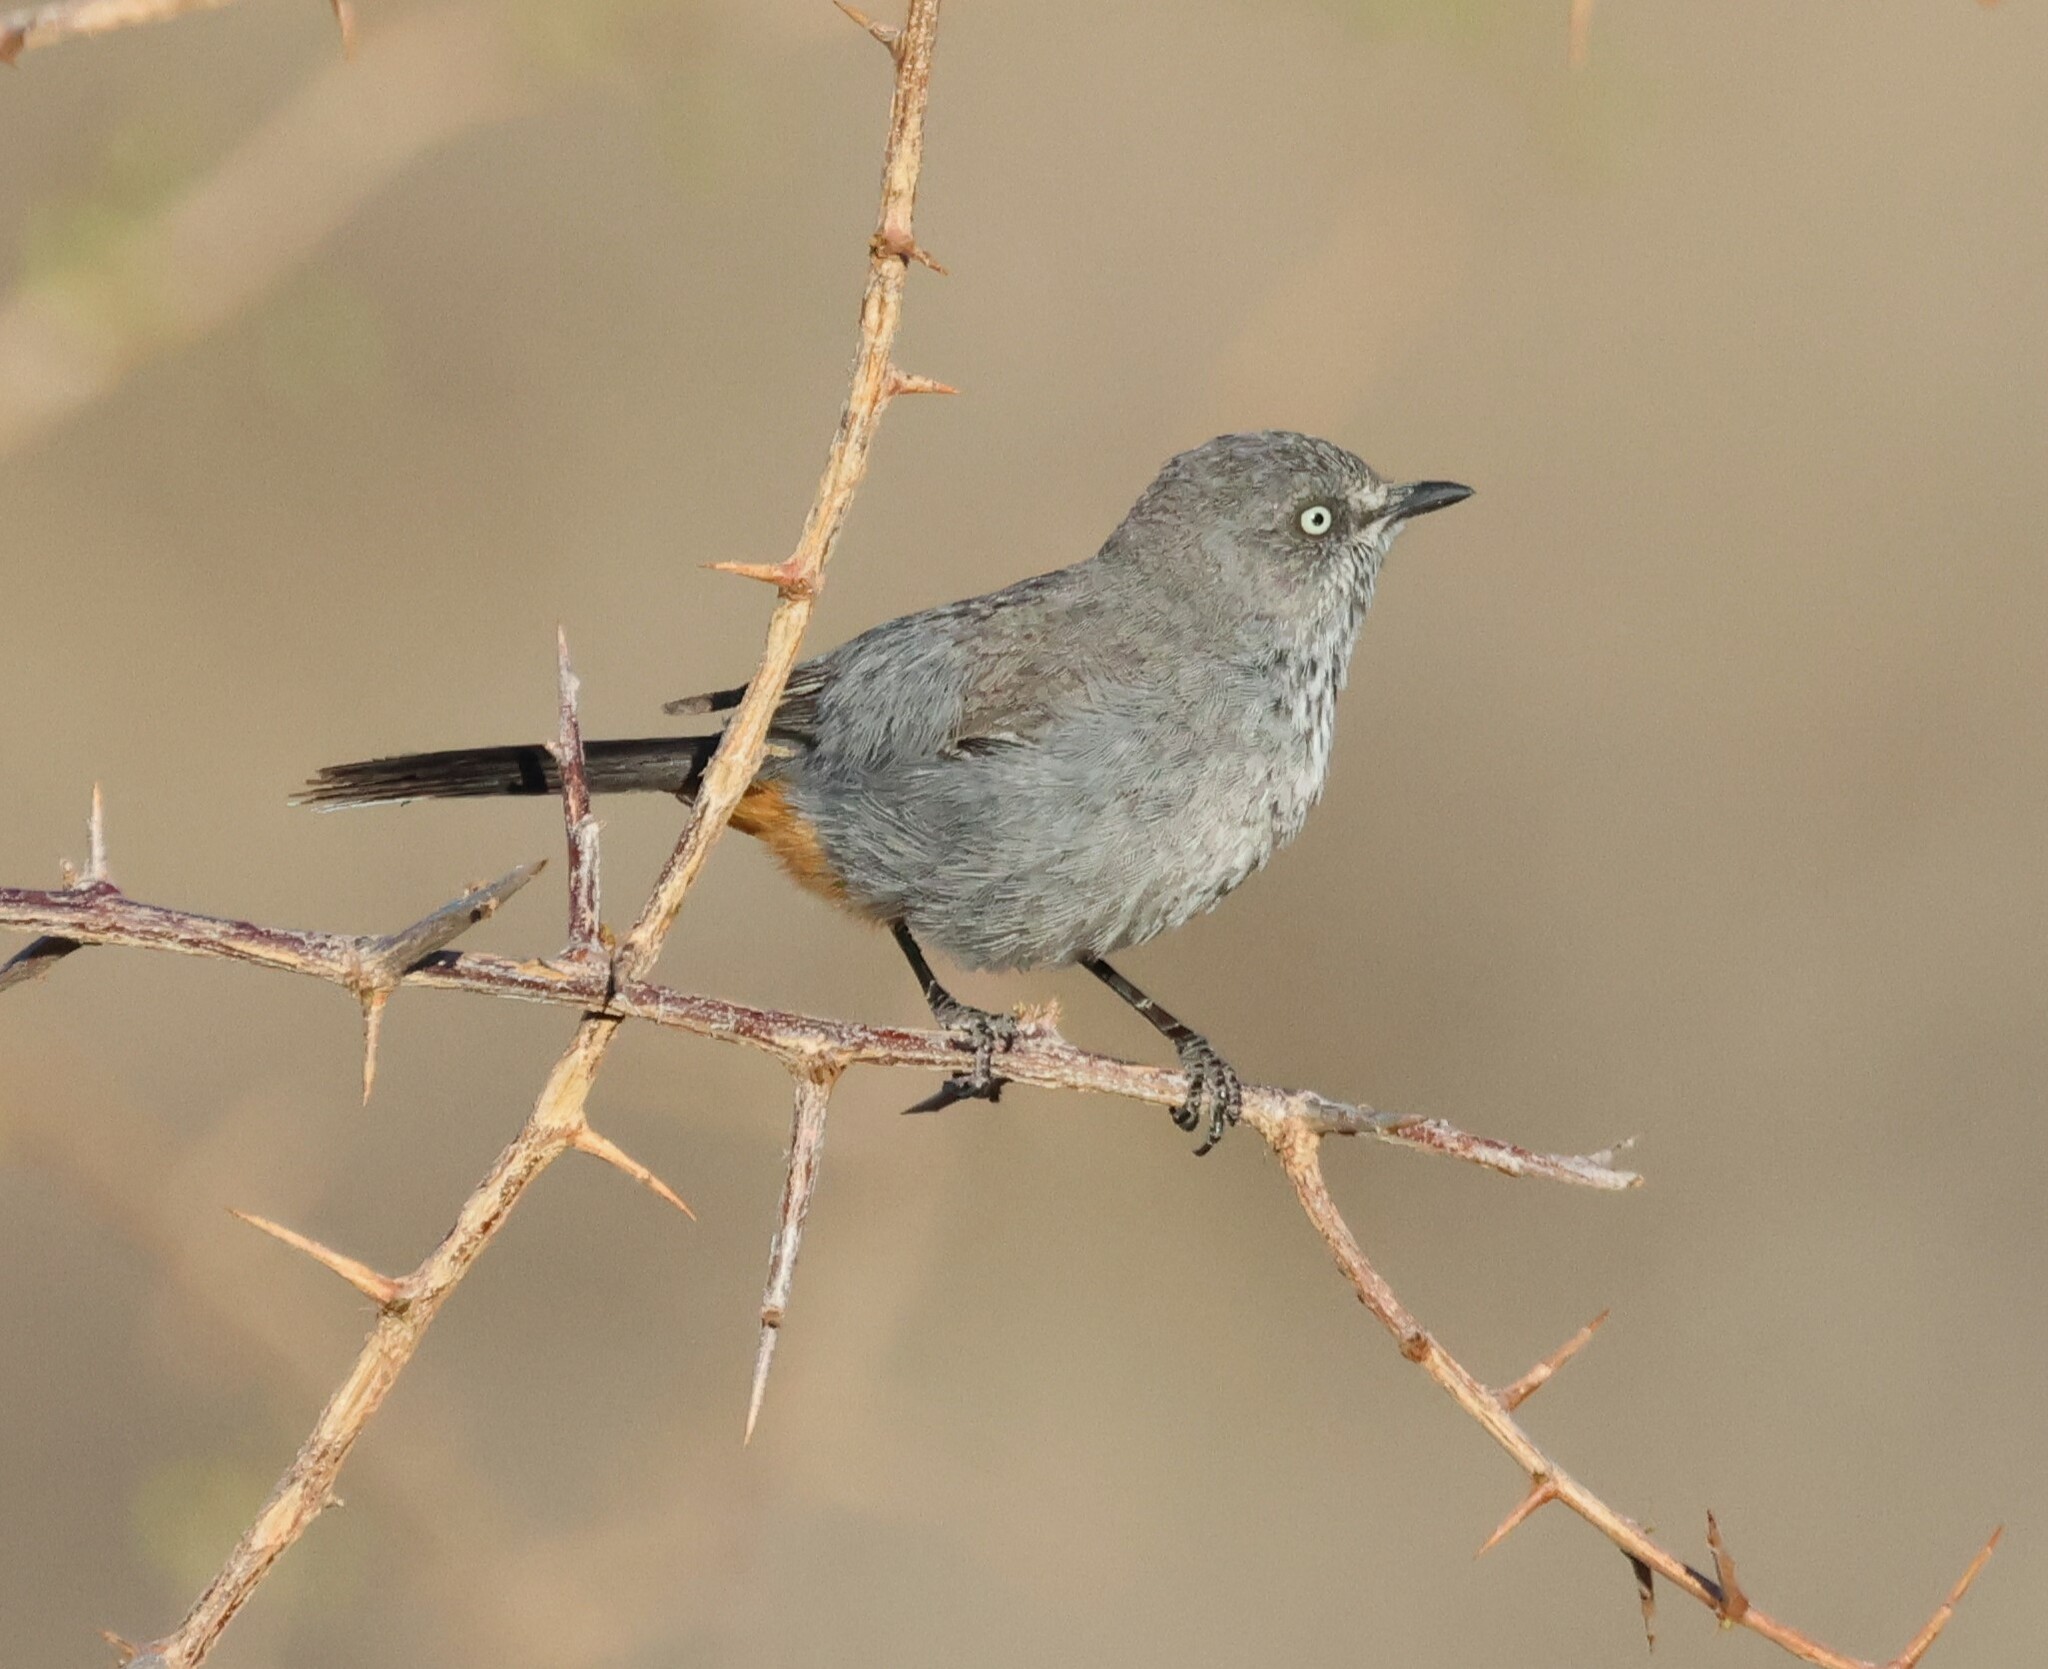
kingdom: Animalia
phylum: Chordata
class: Aves
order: Passeriformes
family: Sylviidae
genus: Curruca
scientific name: Curruca subcoerulea
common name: Chestnut-vented warbler
